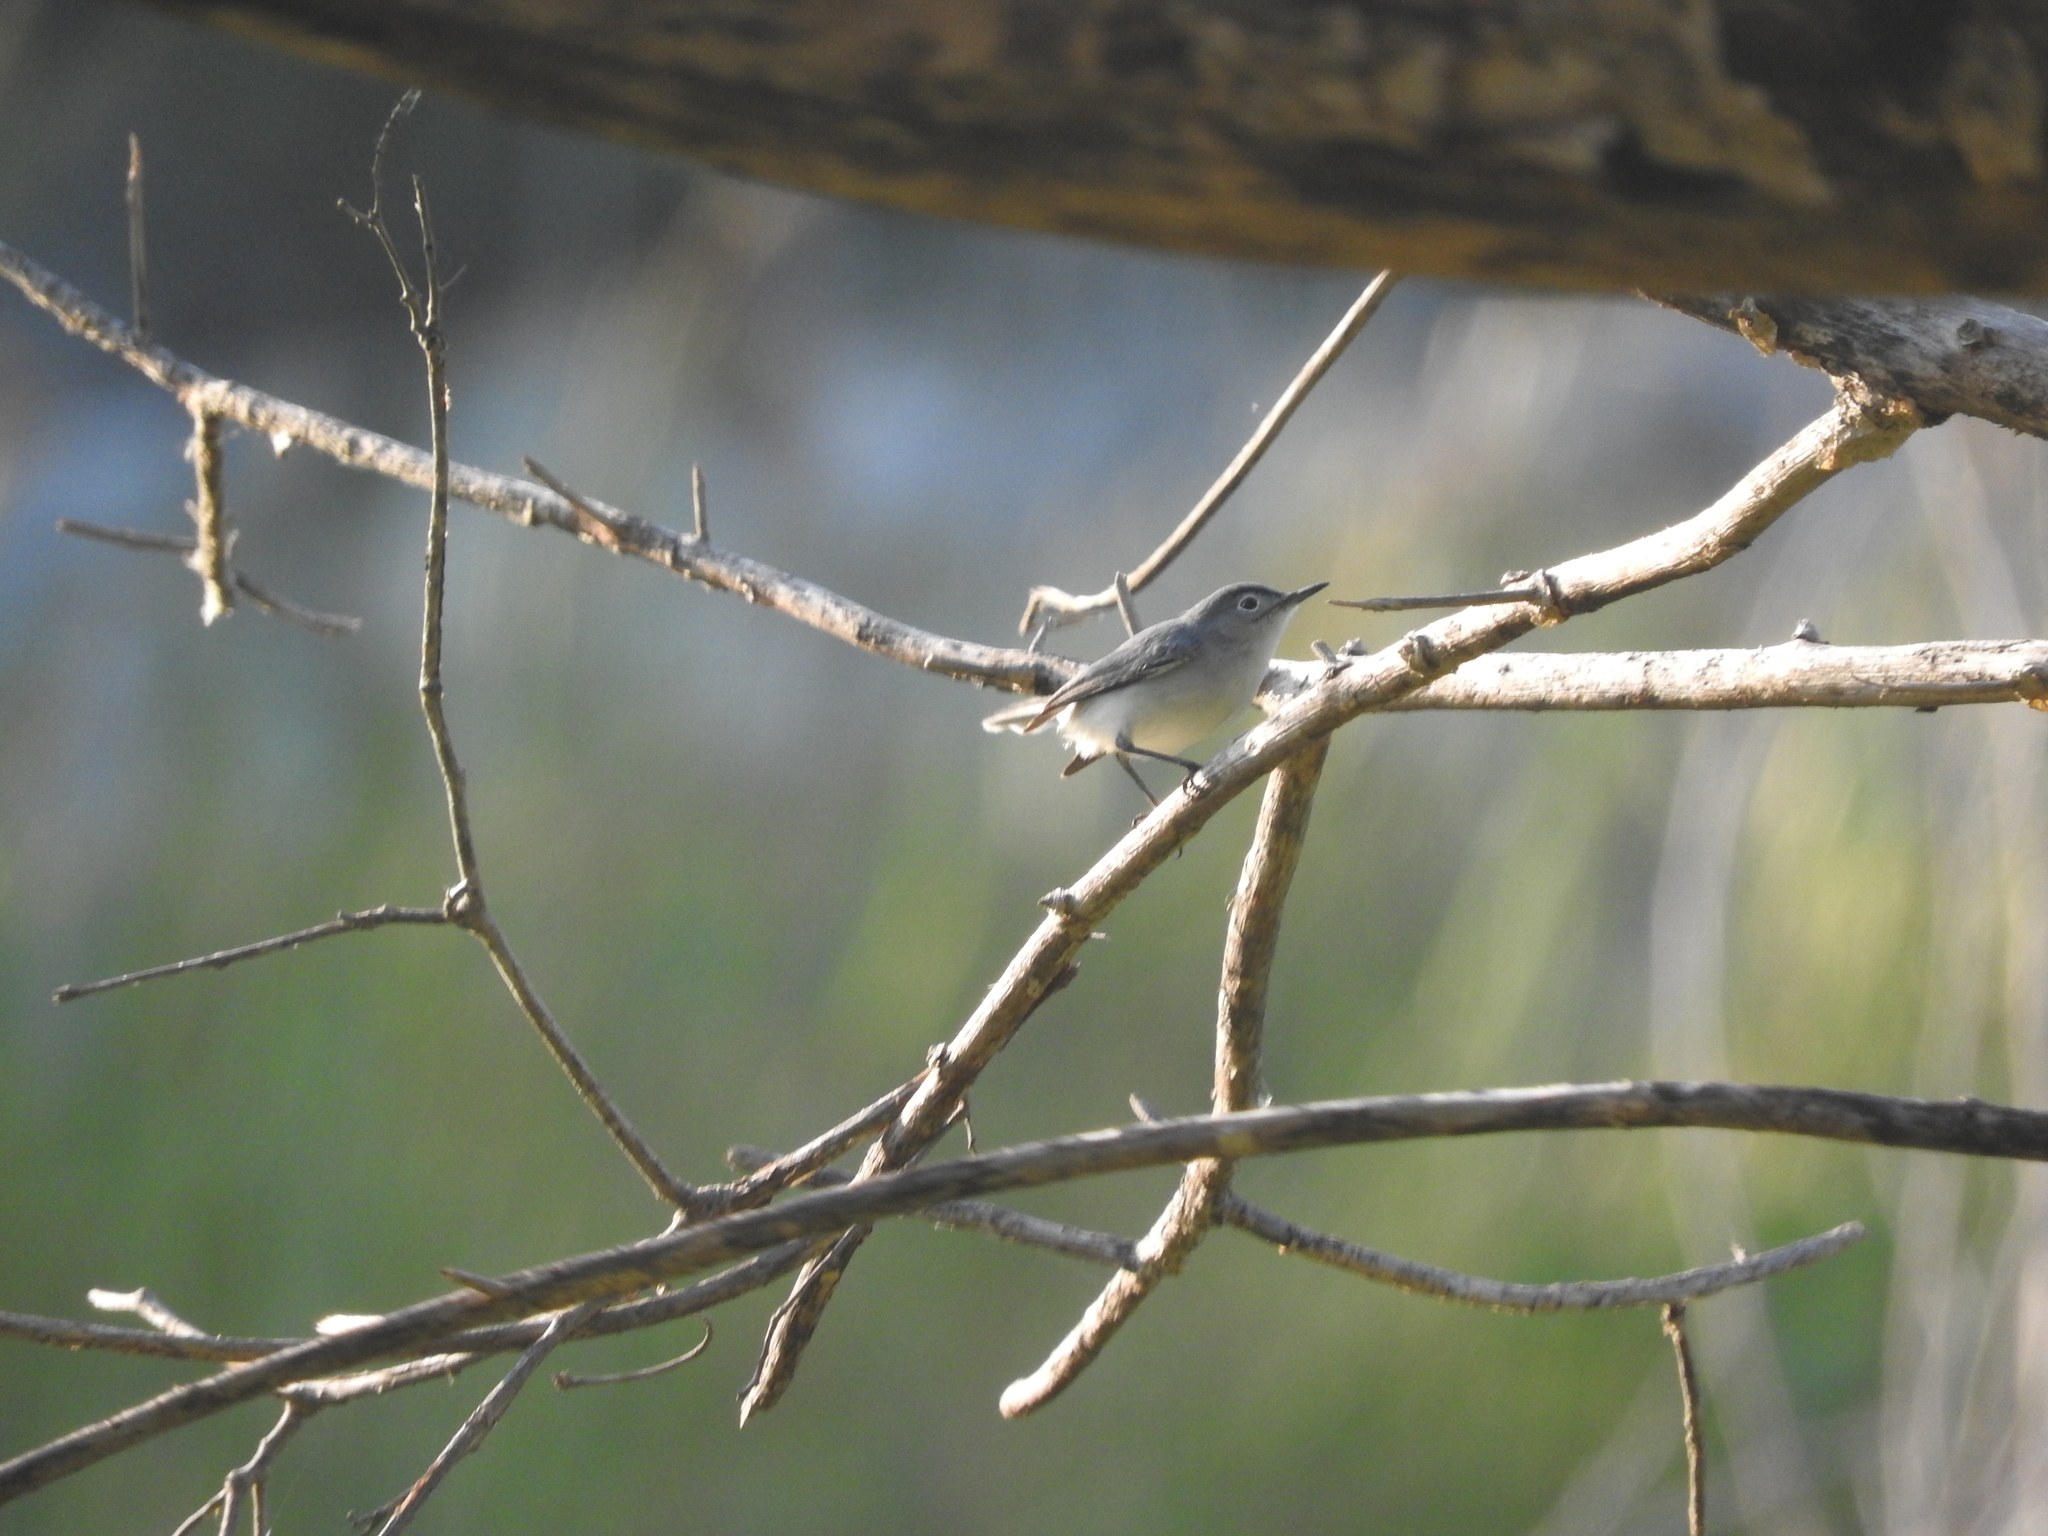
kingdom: Animalia
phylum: Chordata
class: Aves
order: Passeriformes
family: Polioptilidae
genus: Polioptila
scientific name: Polioptila caerulea
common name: Blue-gray gnatcatcher
